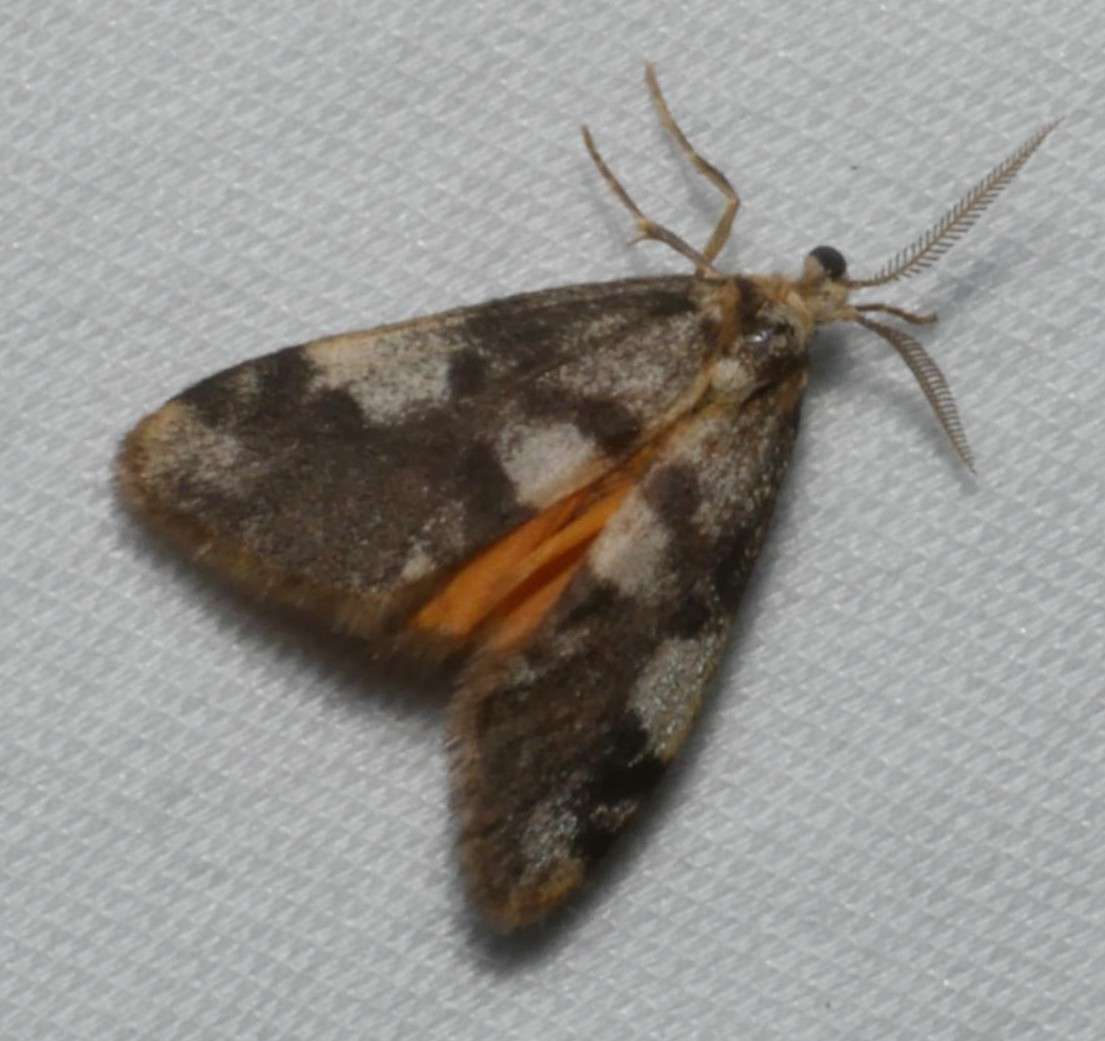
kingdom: Animalia
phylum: Arthropoda
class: Insecta
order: Lepidoptera
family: Erebidae
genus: Anestia
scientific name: Anestia semiochrea
